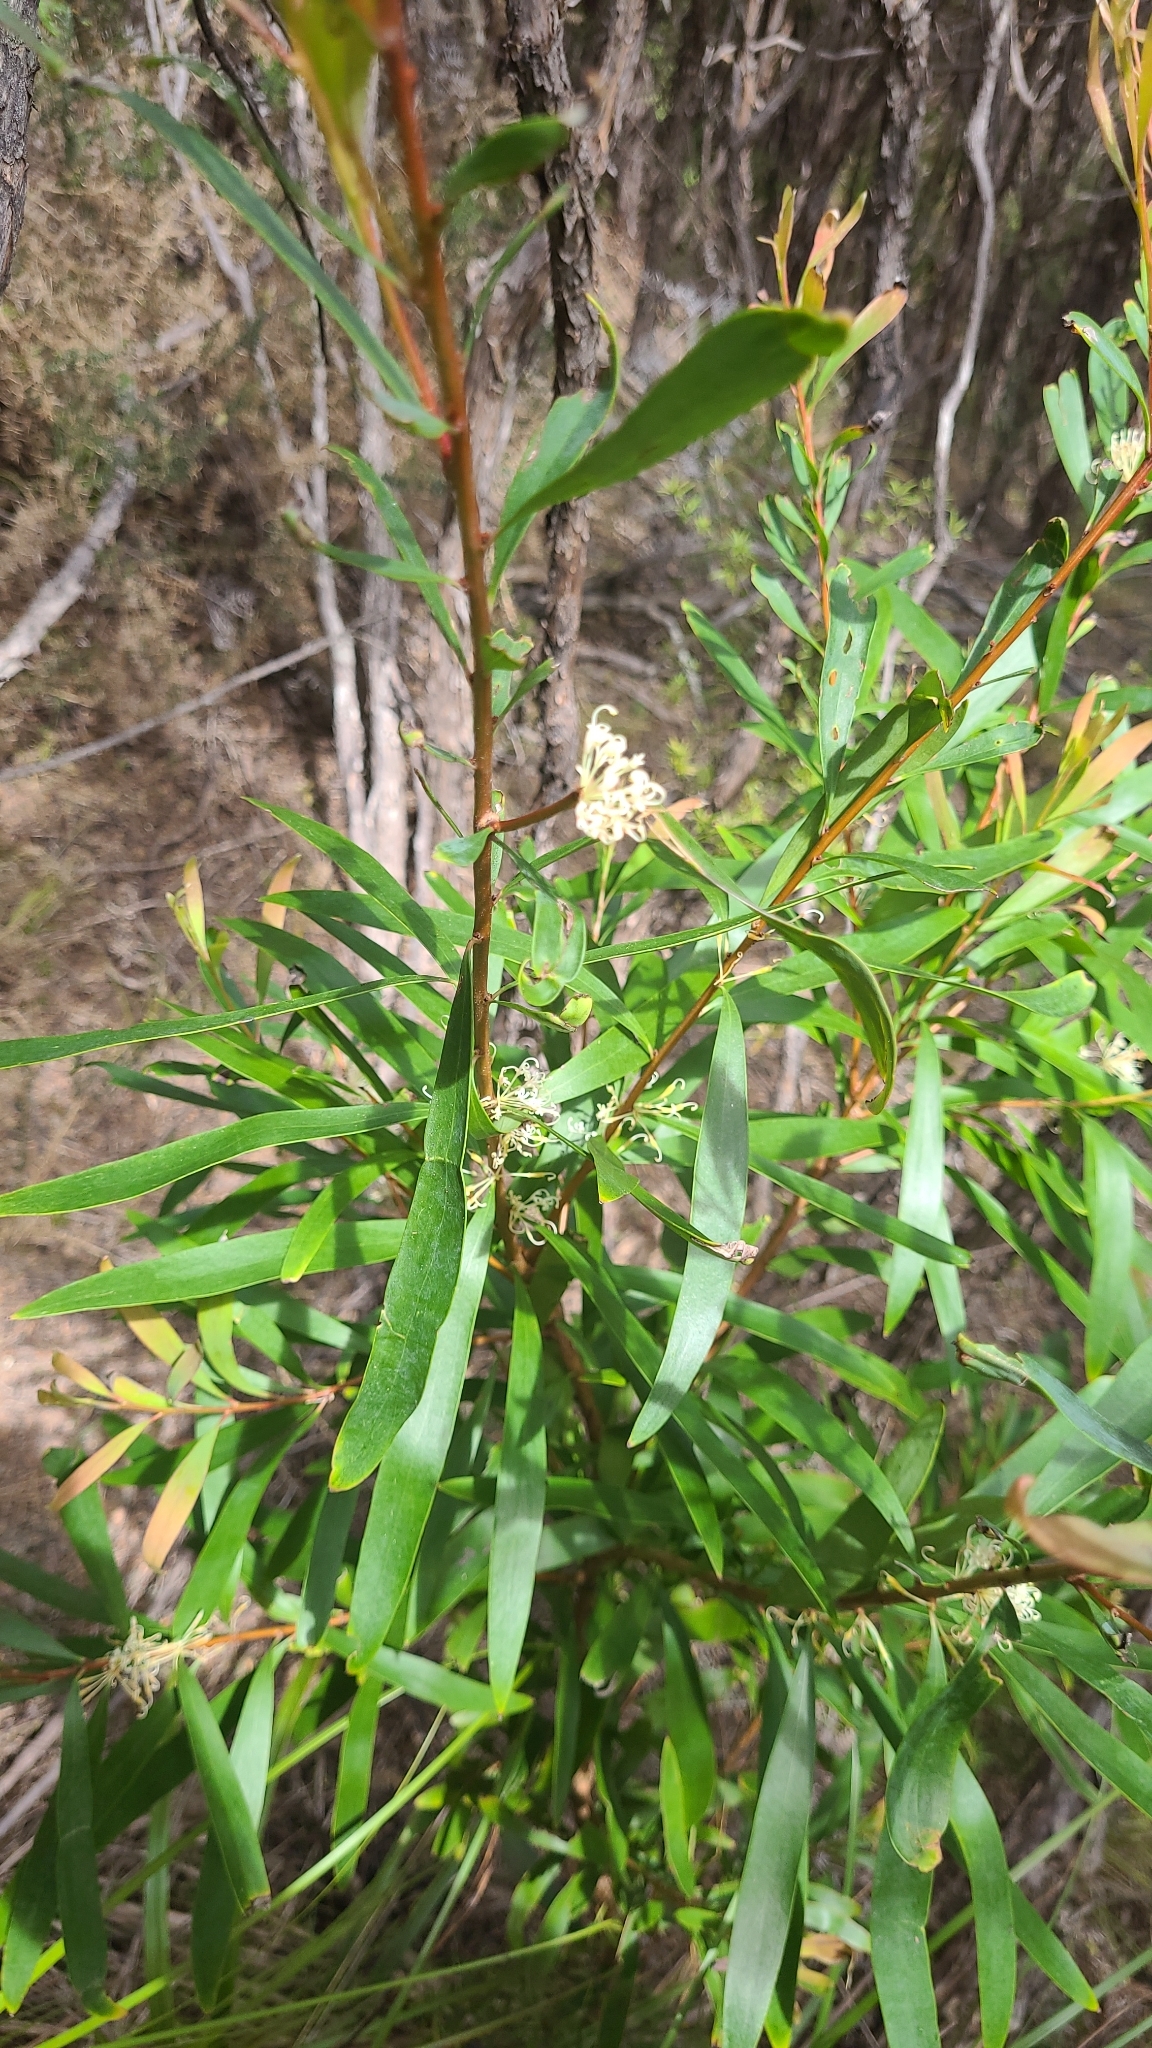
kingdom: Plantae
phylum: Tracheophyta
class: Magnoliopsida
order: Proteales
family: Proteaceae
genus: Hakea
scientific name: Hakea salicifolia
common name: Willow hakea
